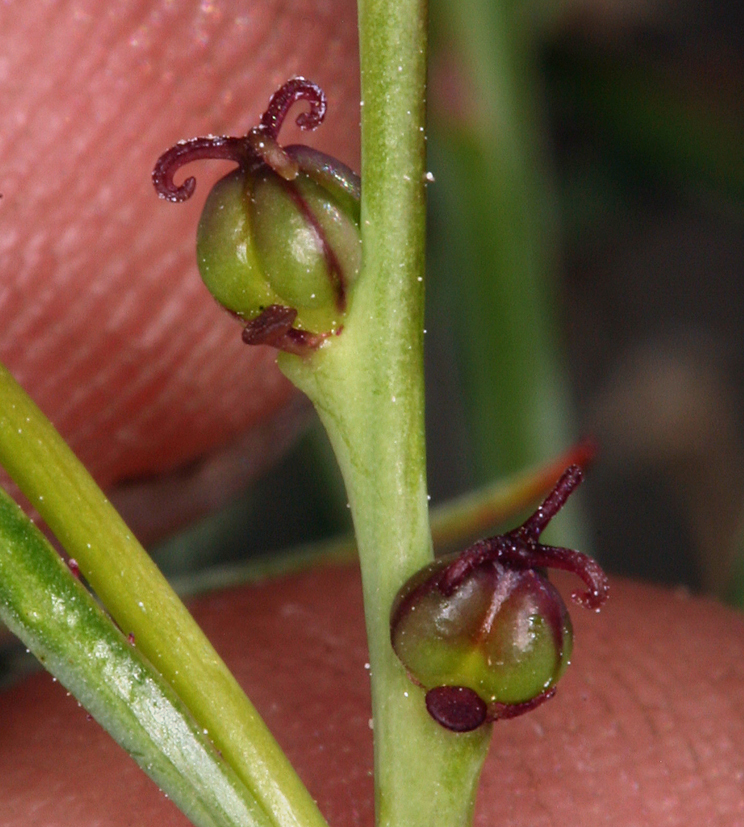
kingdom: Plantae
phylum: Tracheophyta
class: Magnoliopsida
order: Malpighiales
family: Euphorbiaceae
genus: Stillingia
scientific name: Stillingia linearifolia
